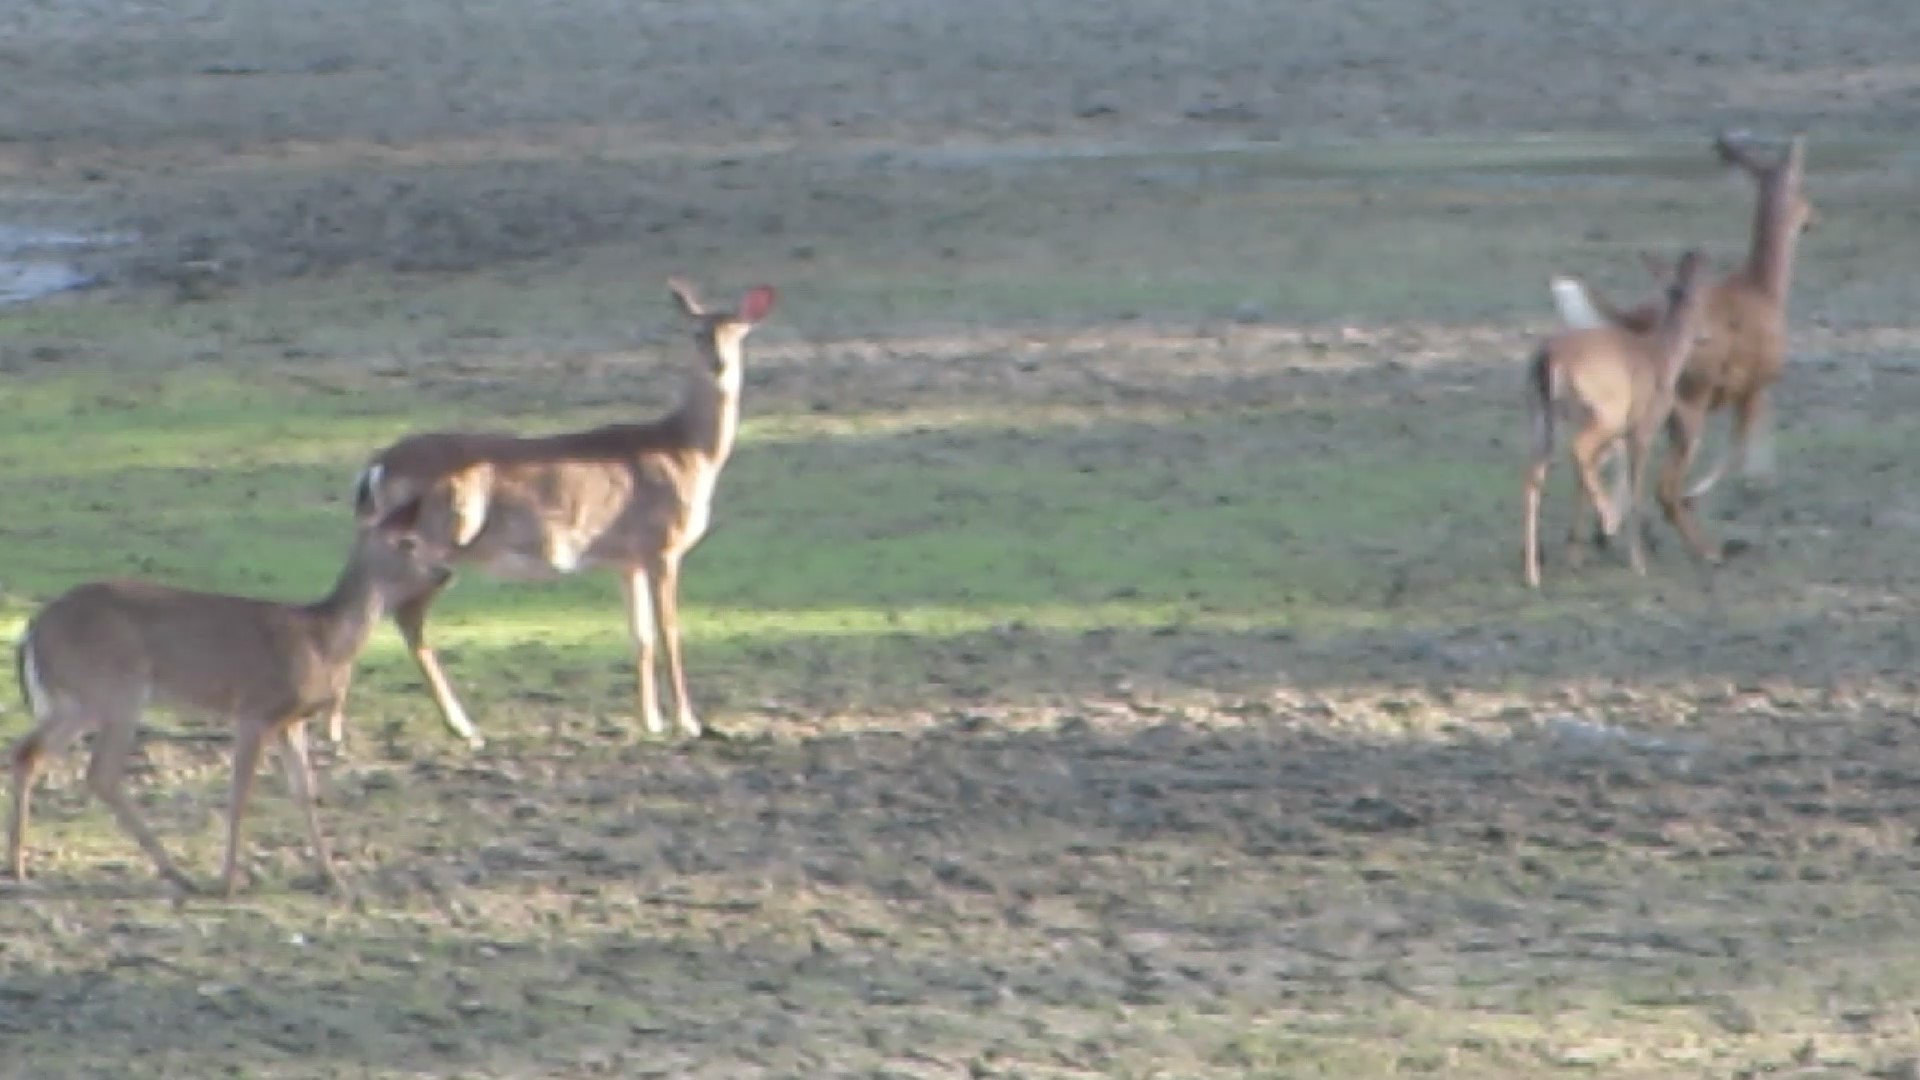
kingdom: Animalia
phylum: Chordata
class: Mammalia
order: Artiodactyla
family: Cervidae
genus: Odocoileus
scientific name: Odocoileus virginianus
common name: White-tailed deer
